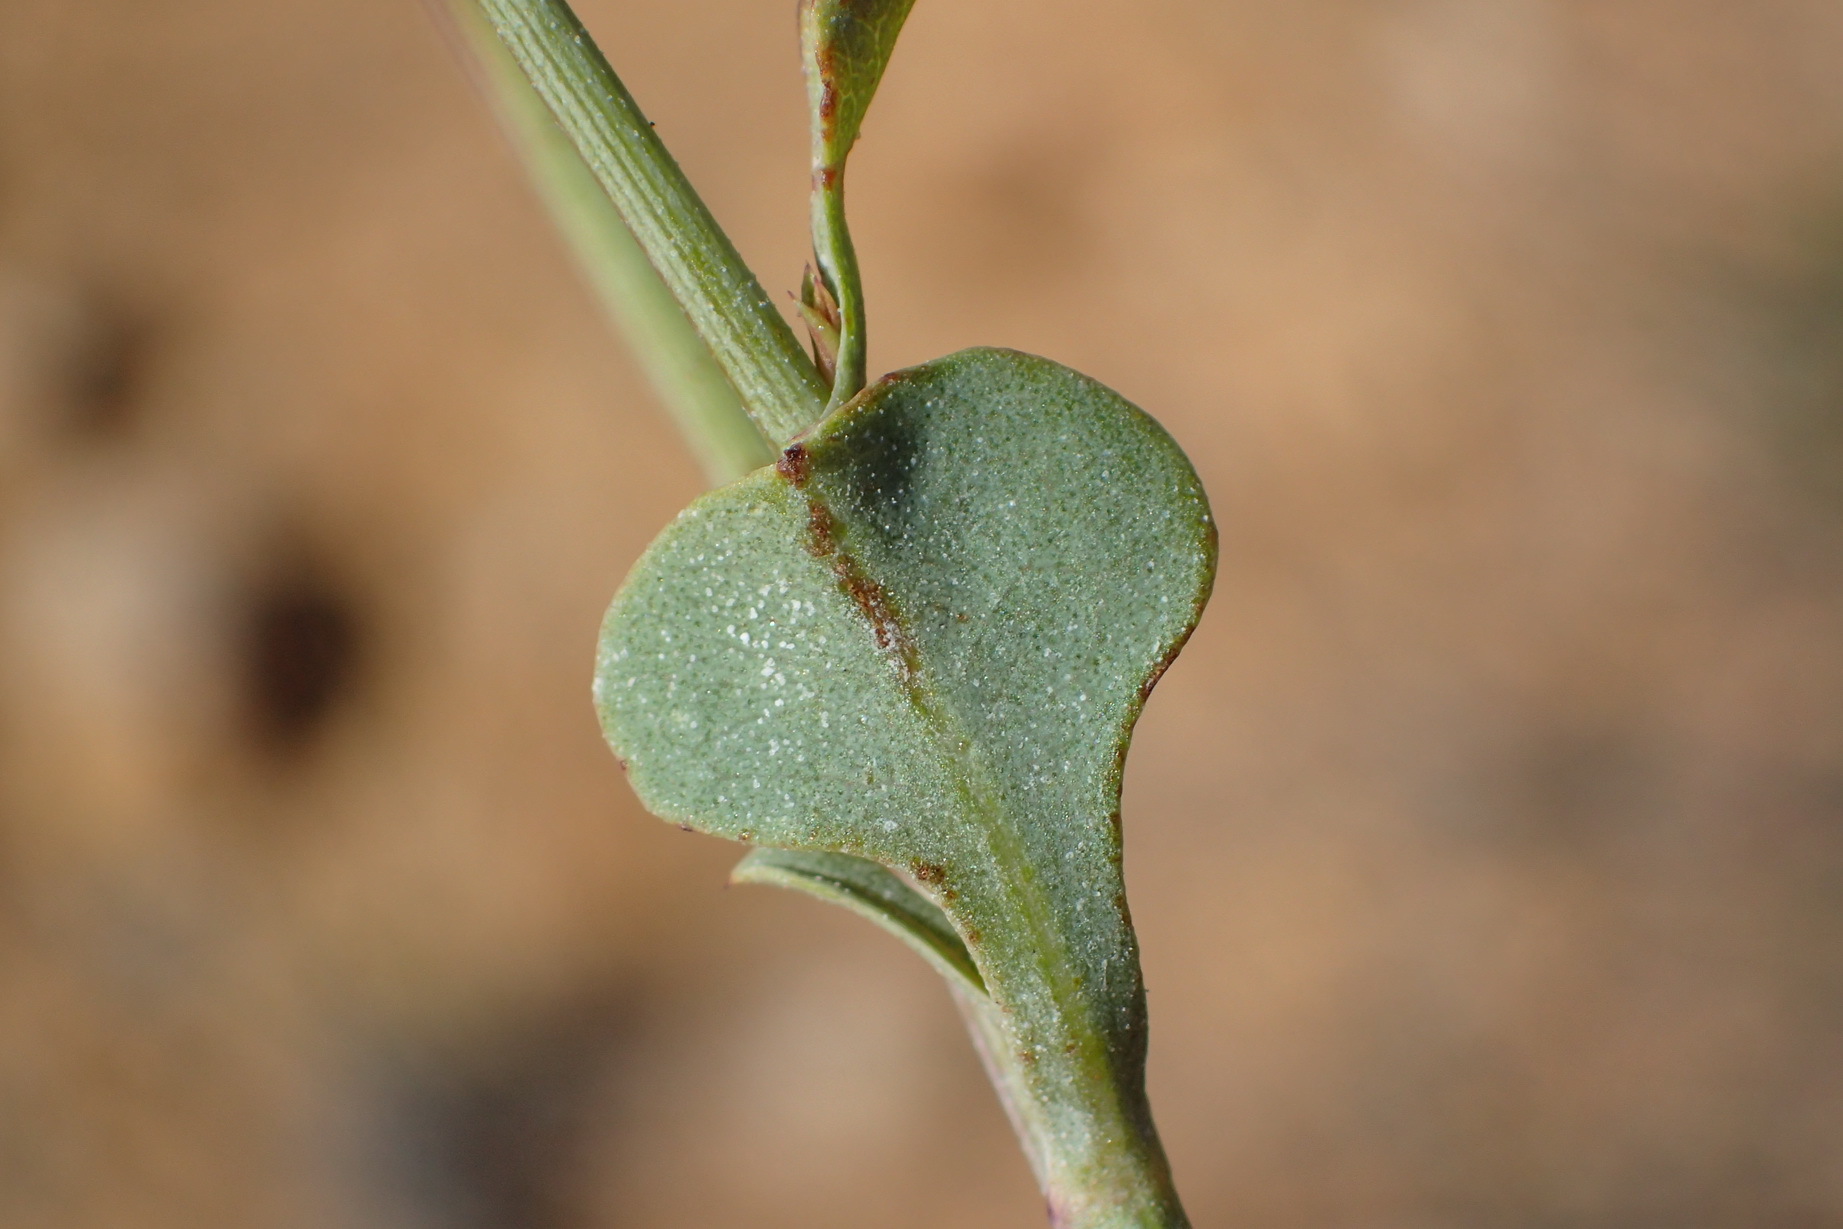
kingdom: Plantae
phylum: Tracheophyta
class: Magnoliopsida
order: Caryophyllales
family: Plumbaginaceae
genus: Dyerophytum
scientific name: Dyerophytum africanum
